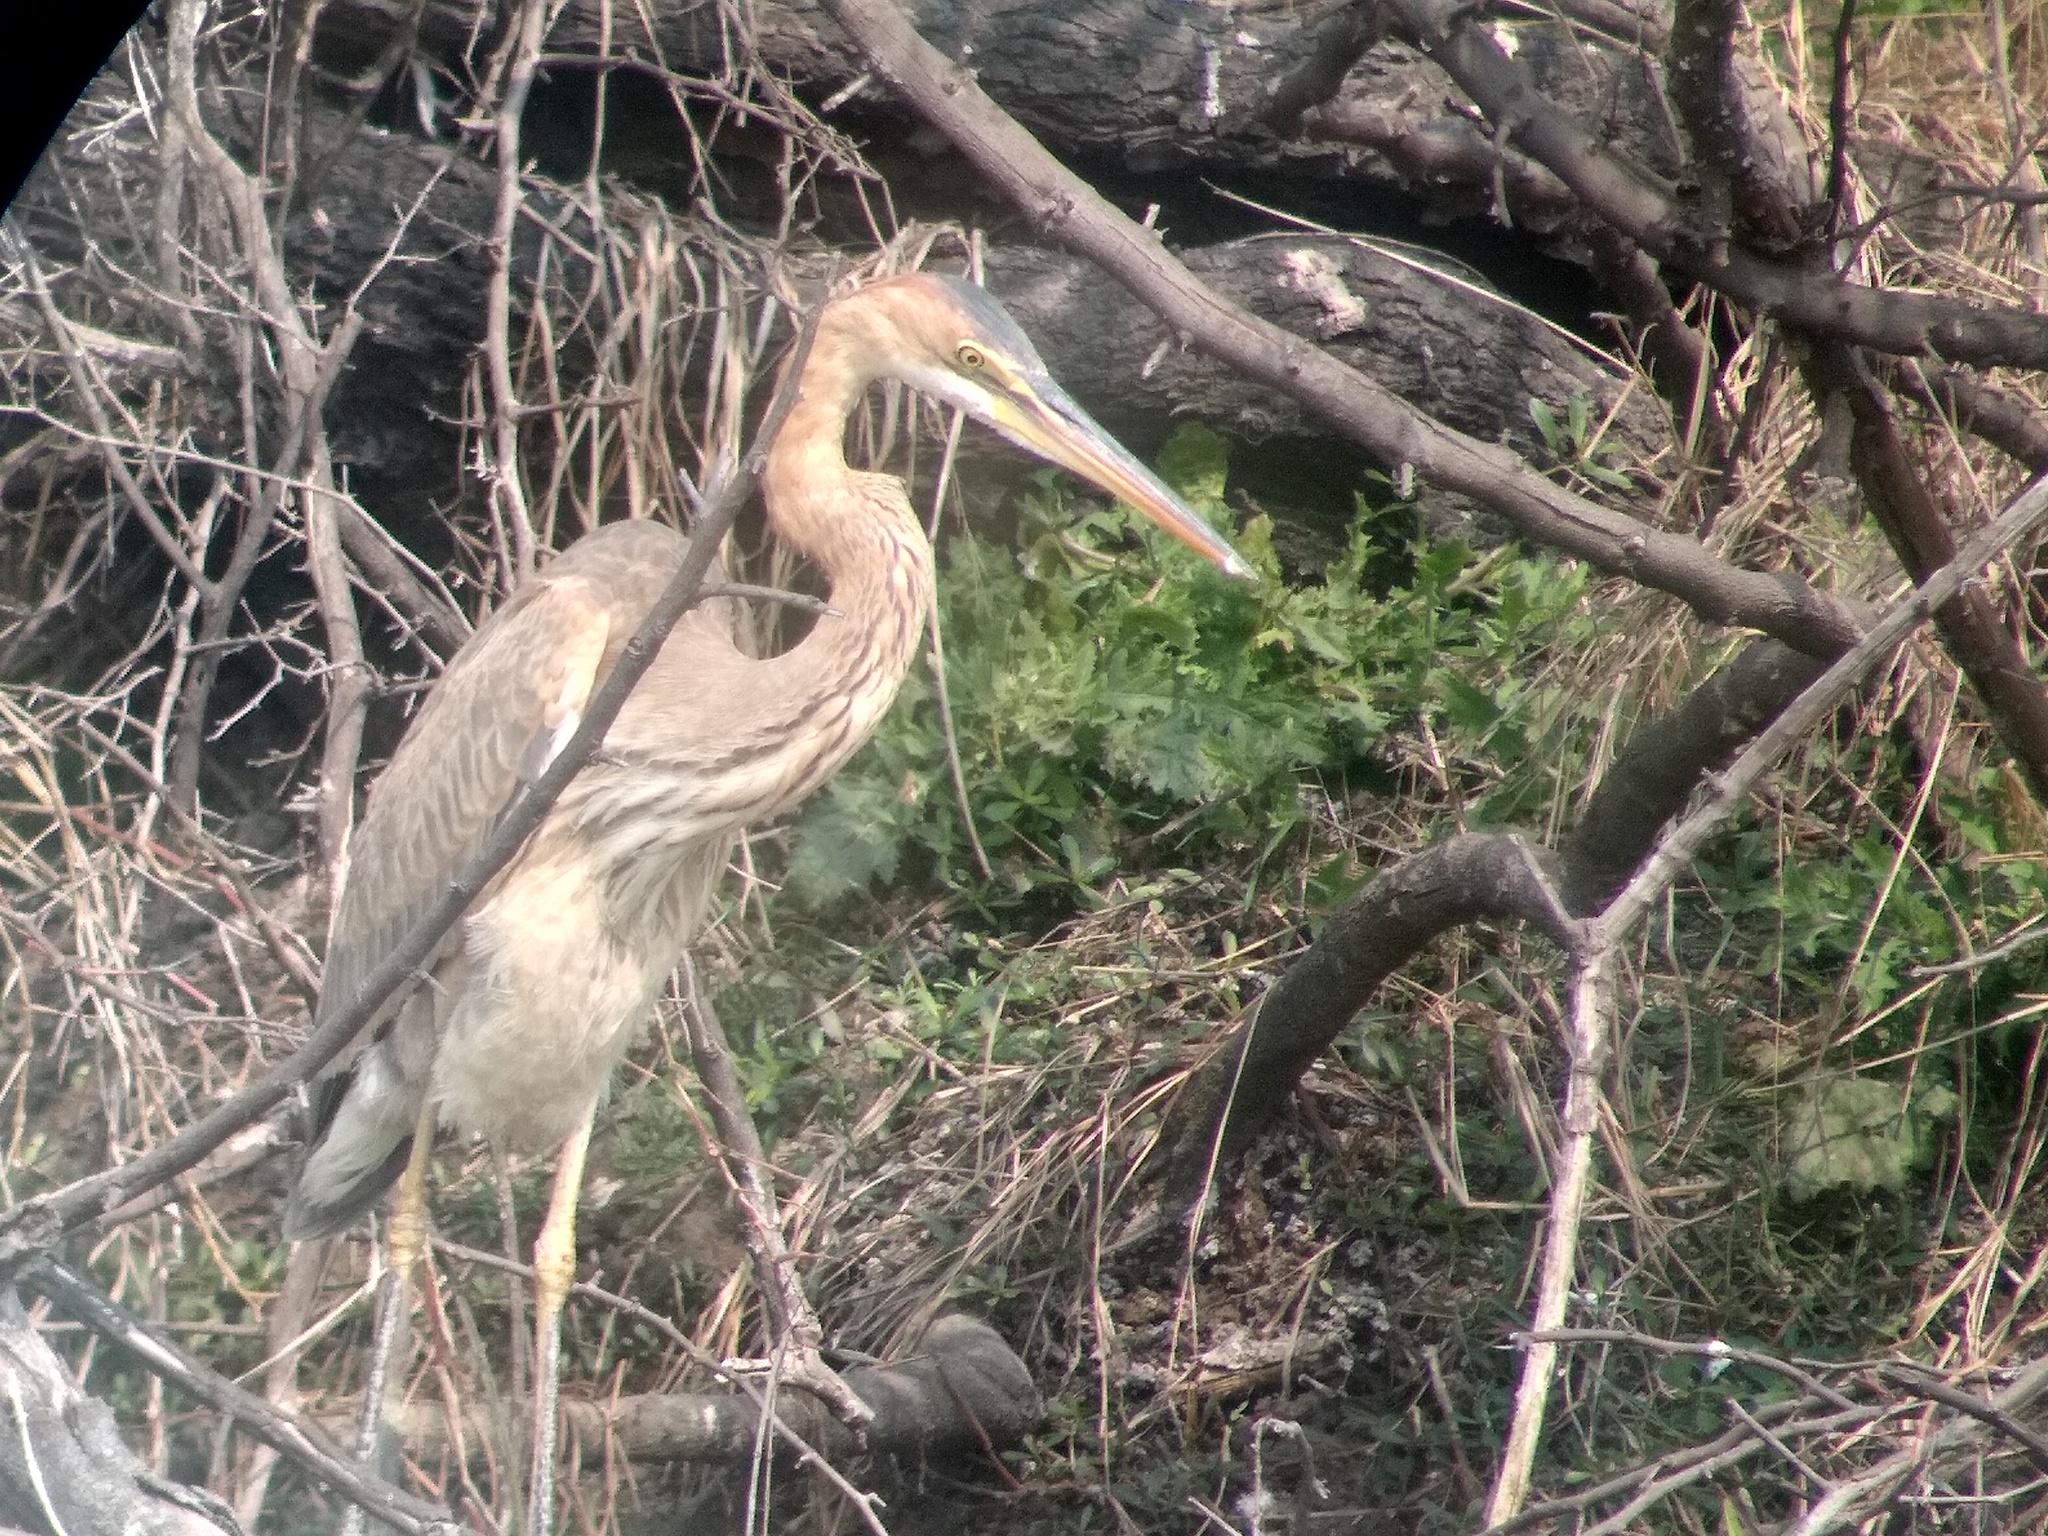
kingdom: Animalia
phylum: Chordata
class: Aves
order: Pelecaniformes
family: Ardeidae
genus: Ardea
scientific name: Ardea purpurea
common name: Purple heron
